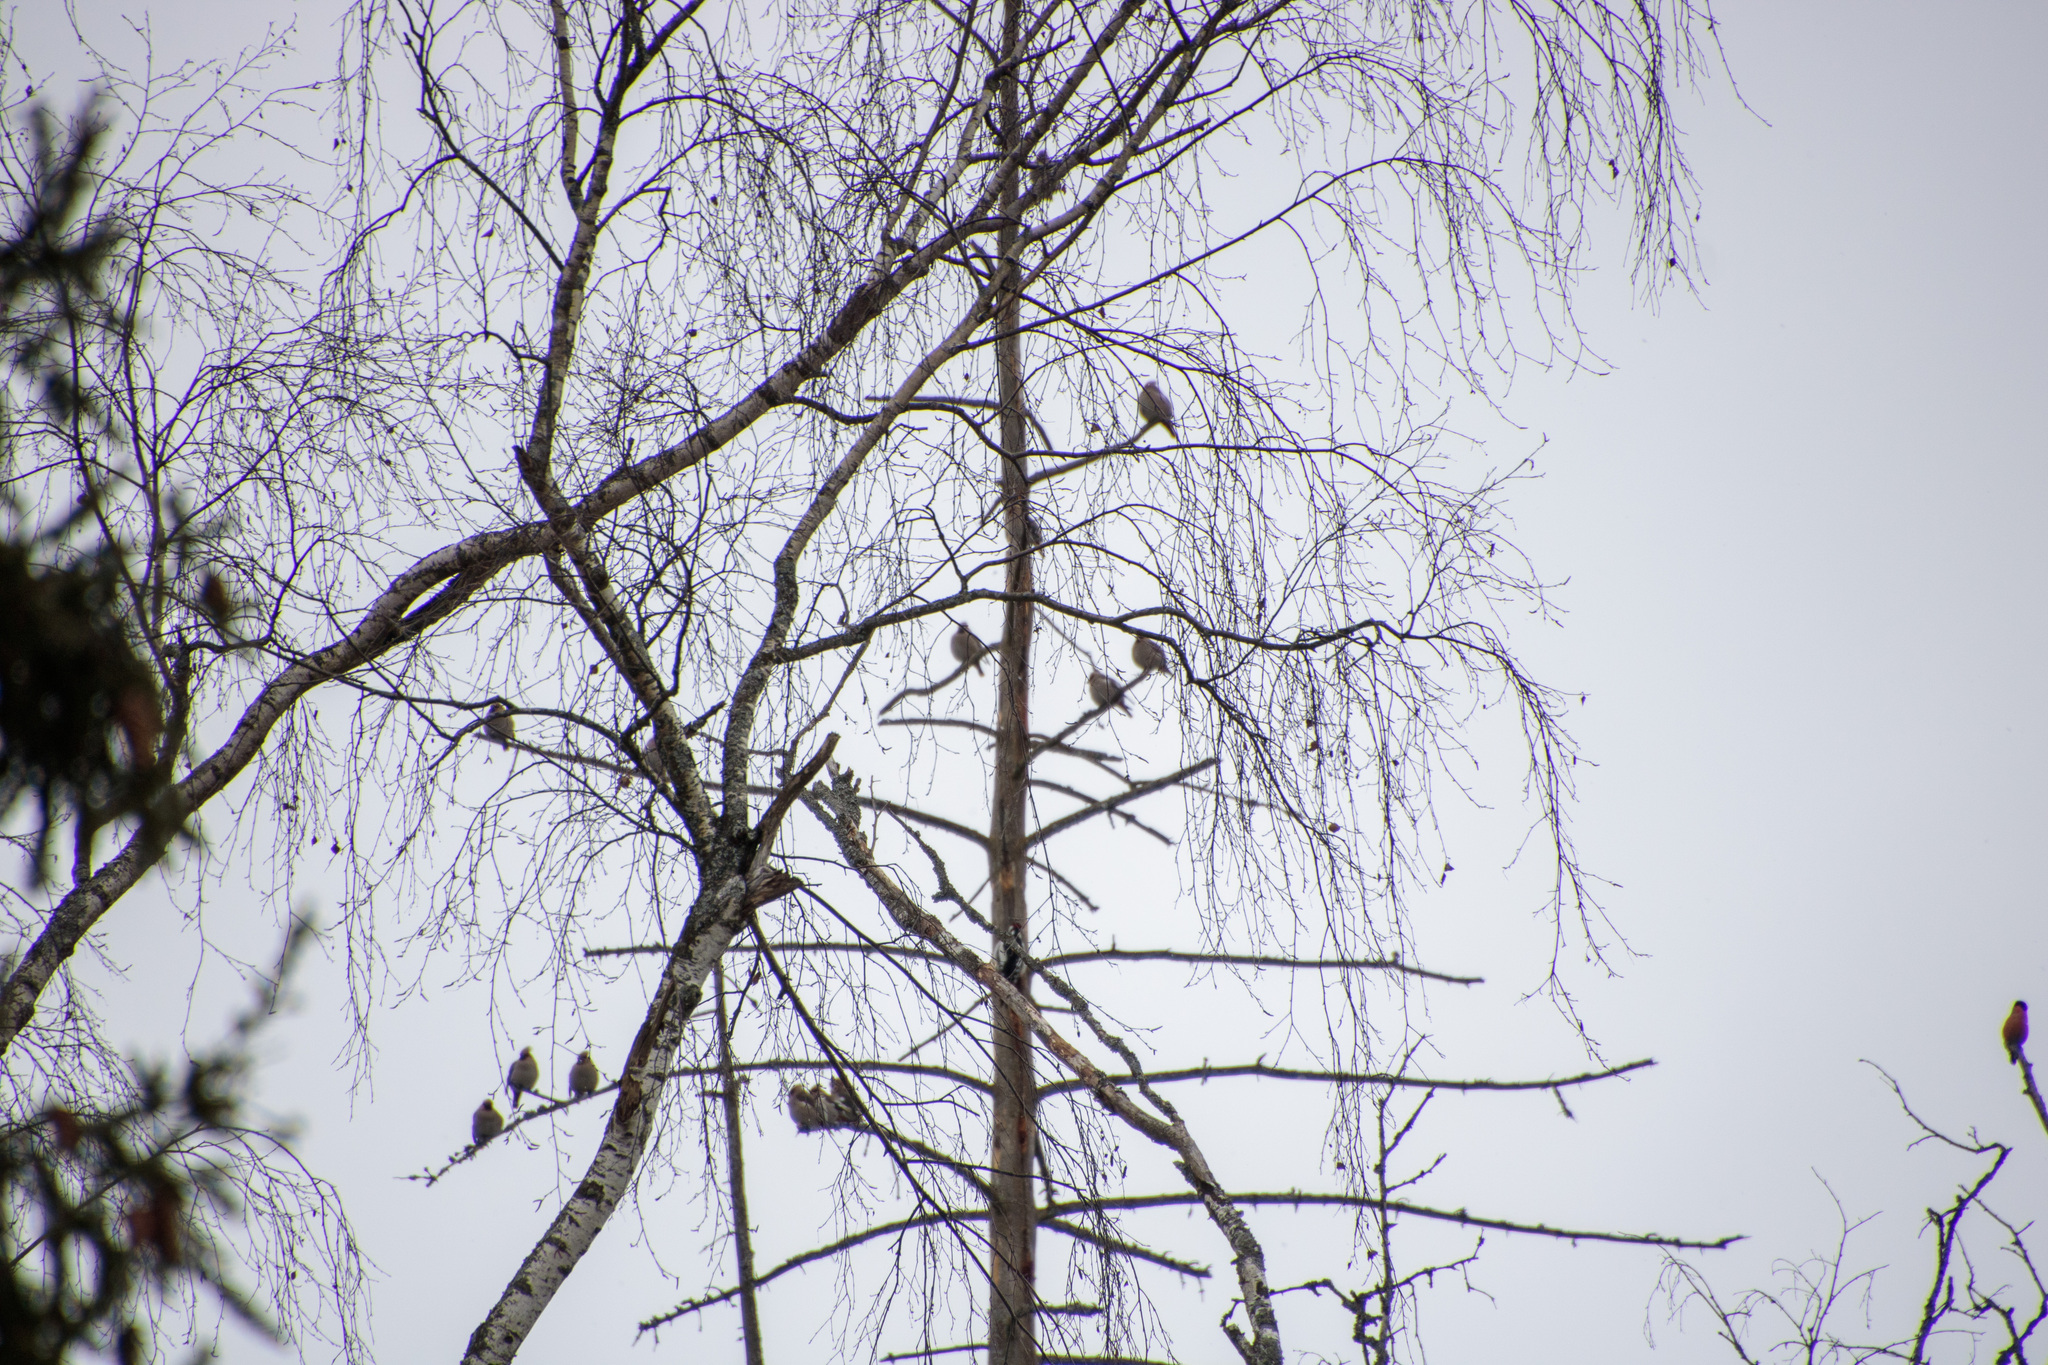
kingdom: Animalia
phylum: Chordata
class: Aves
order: Passeriformes
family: Bombycillidae
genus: Bombycilla
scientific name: Bombycilla garrulus
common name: Bohemian waxwing
